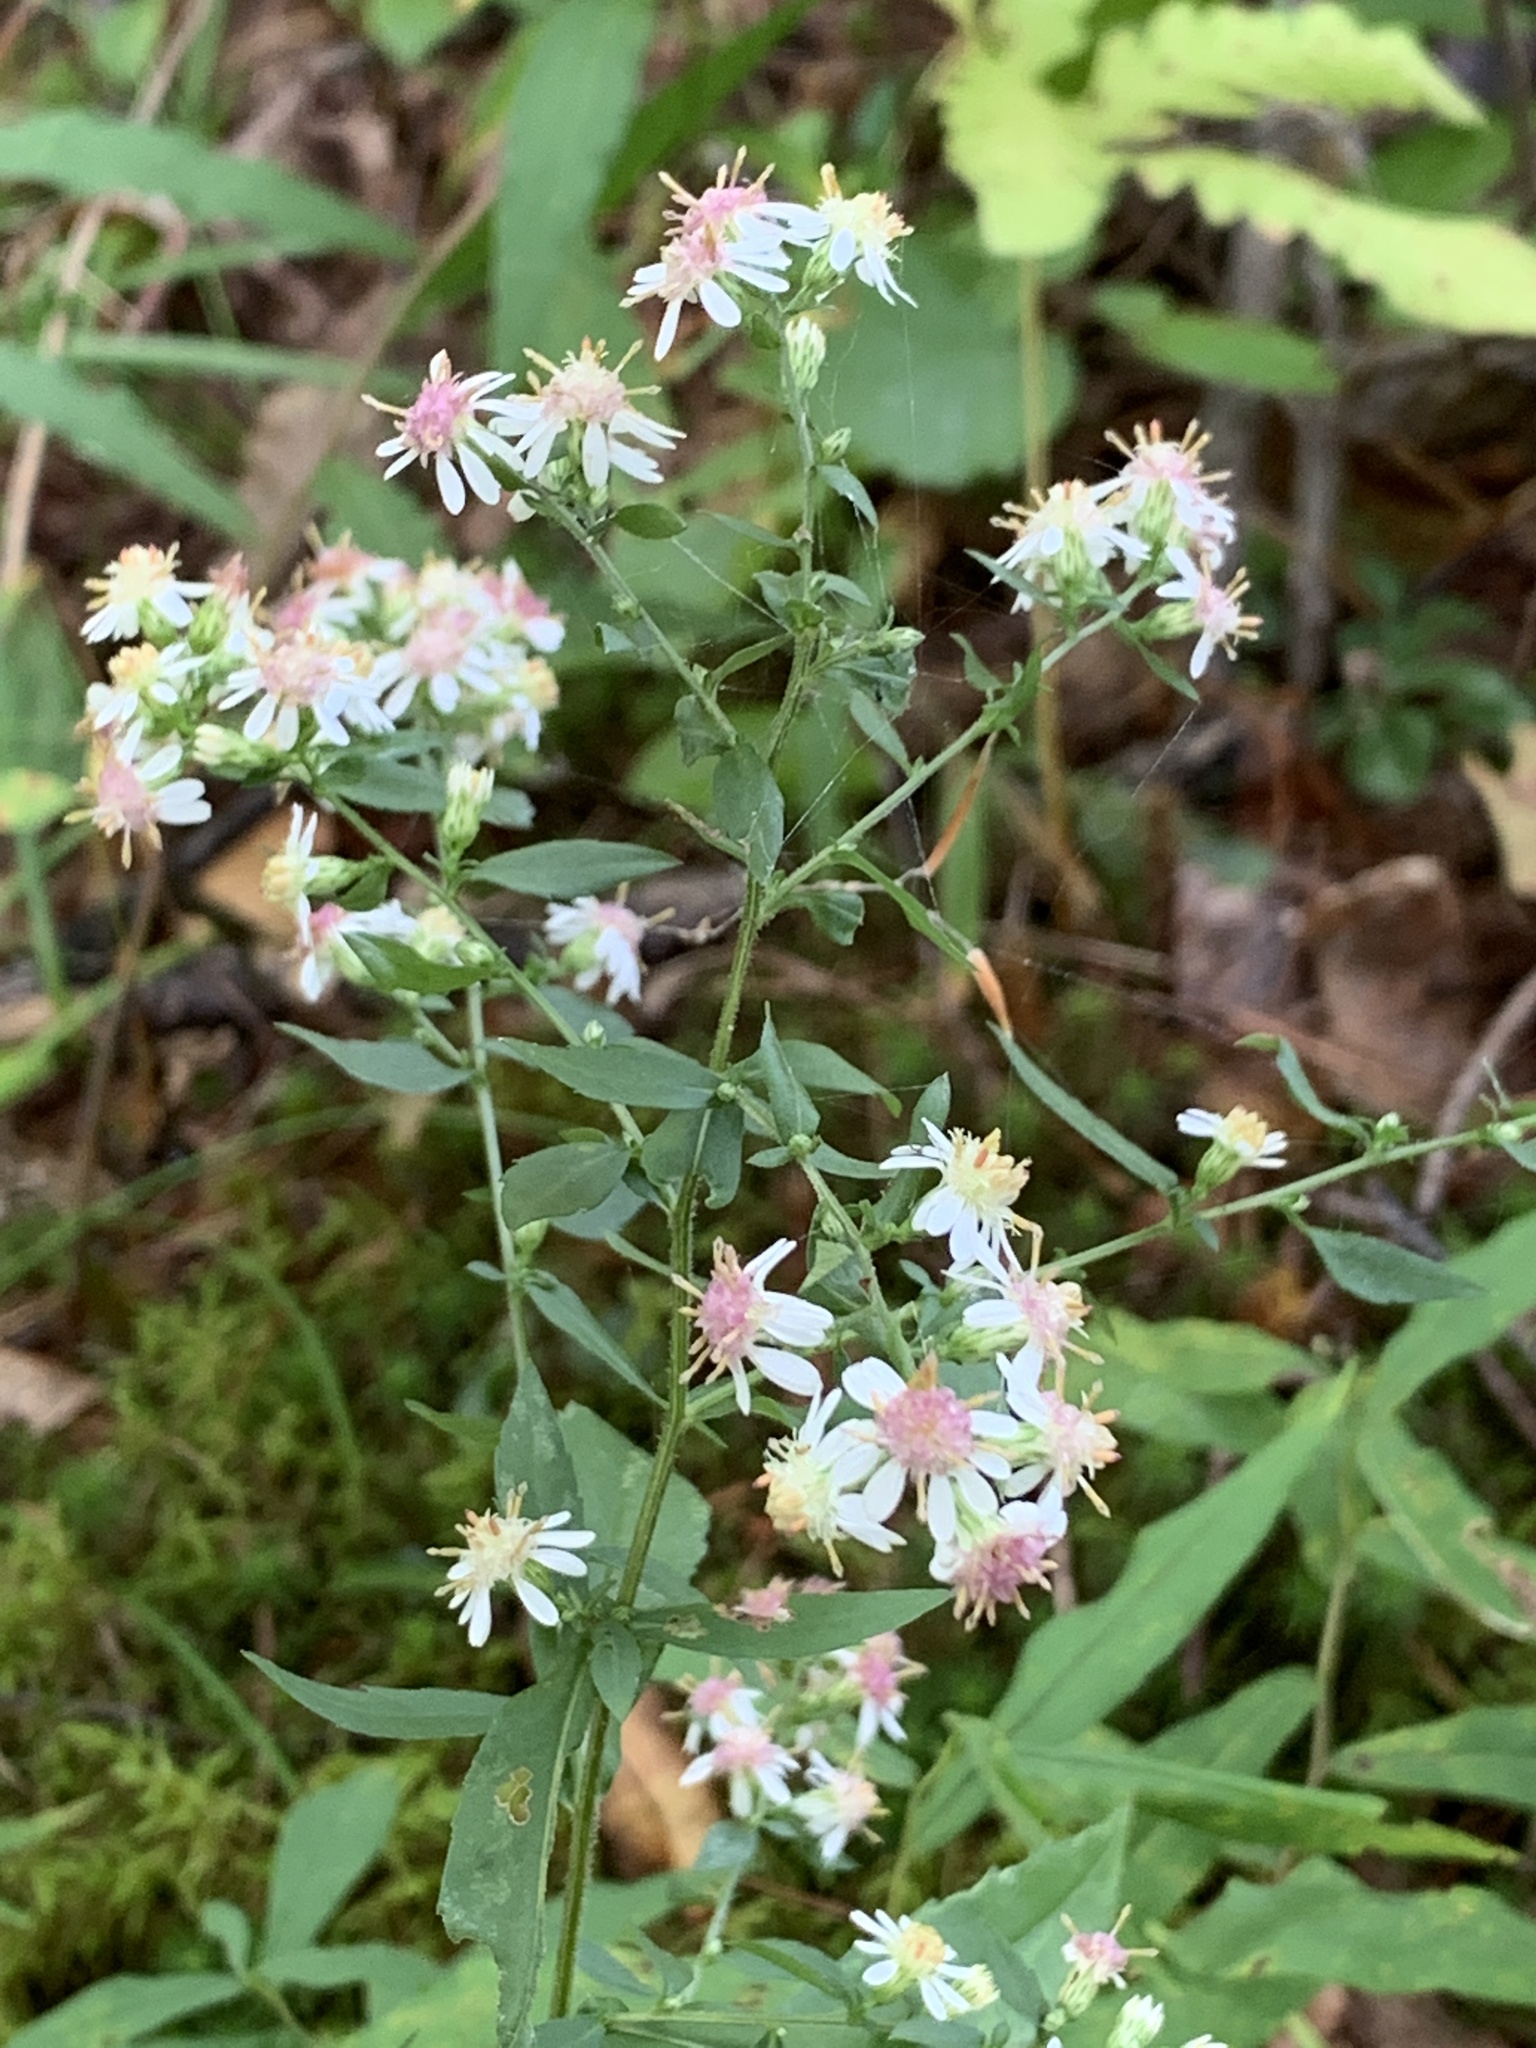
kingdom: Plantae
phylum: Tracheophyta
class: Magnoliopsida
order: Asterales
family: Asteraceae
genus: Symphyotrichum
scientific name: Symphyotrichum lateriflorum
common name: Calico aster
